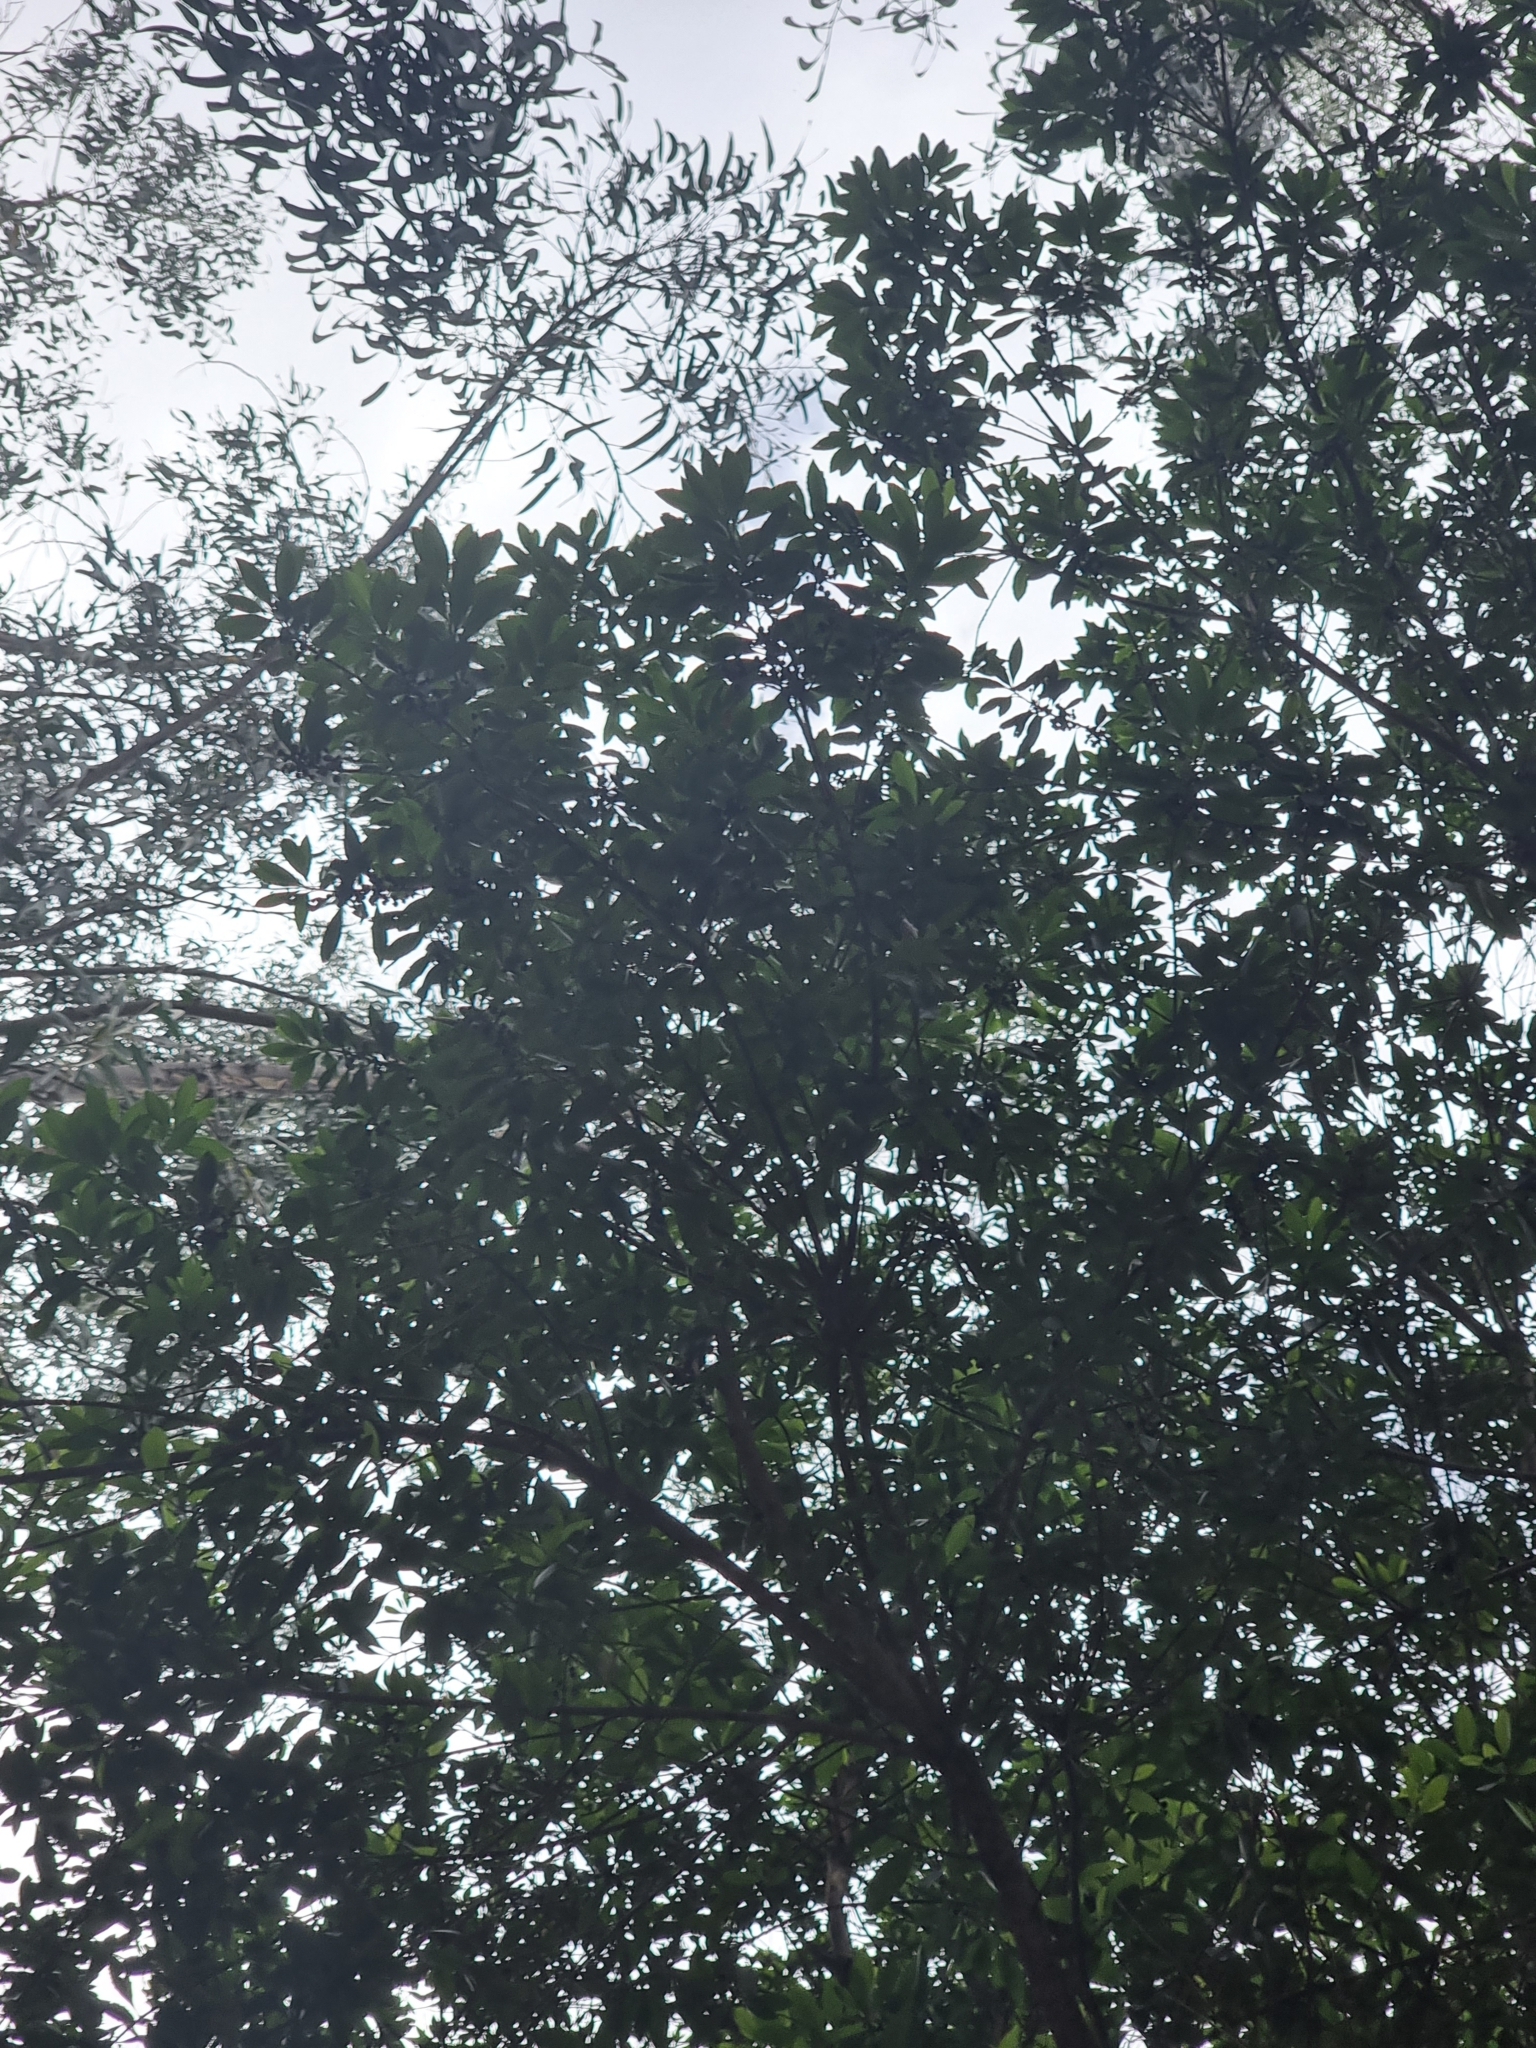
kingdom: Plantae
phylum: Tracheophyta
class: Magnoliopsida
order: Fagales
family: Myricaceae
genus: Morella
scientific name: Morella faya
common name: Firetree
